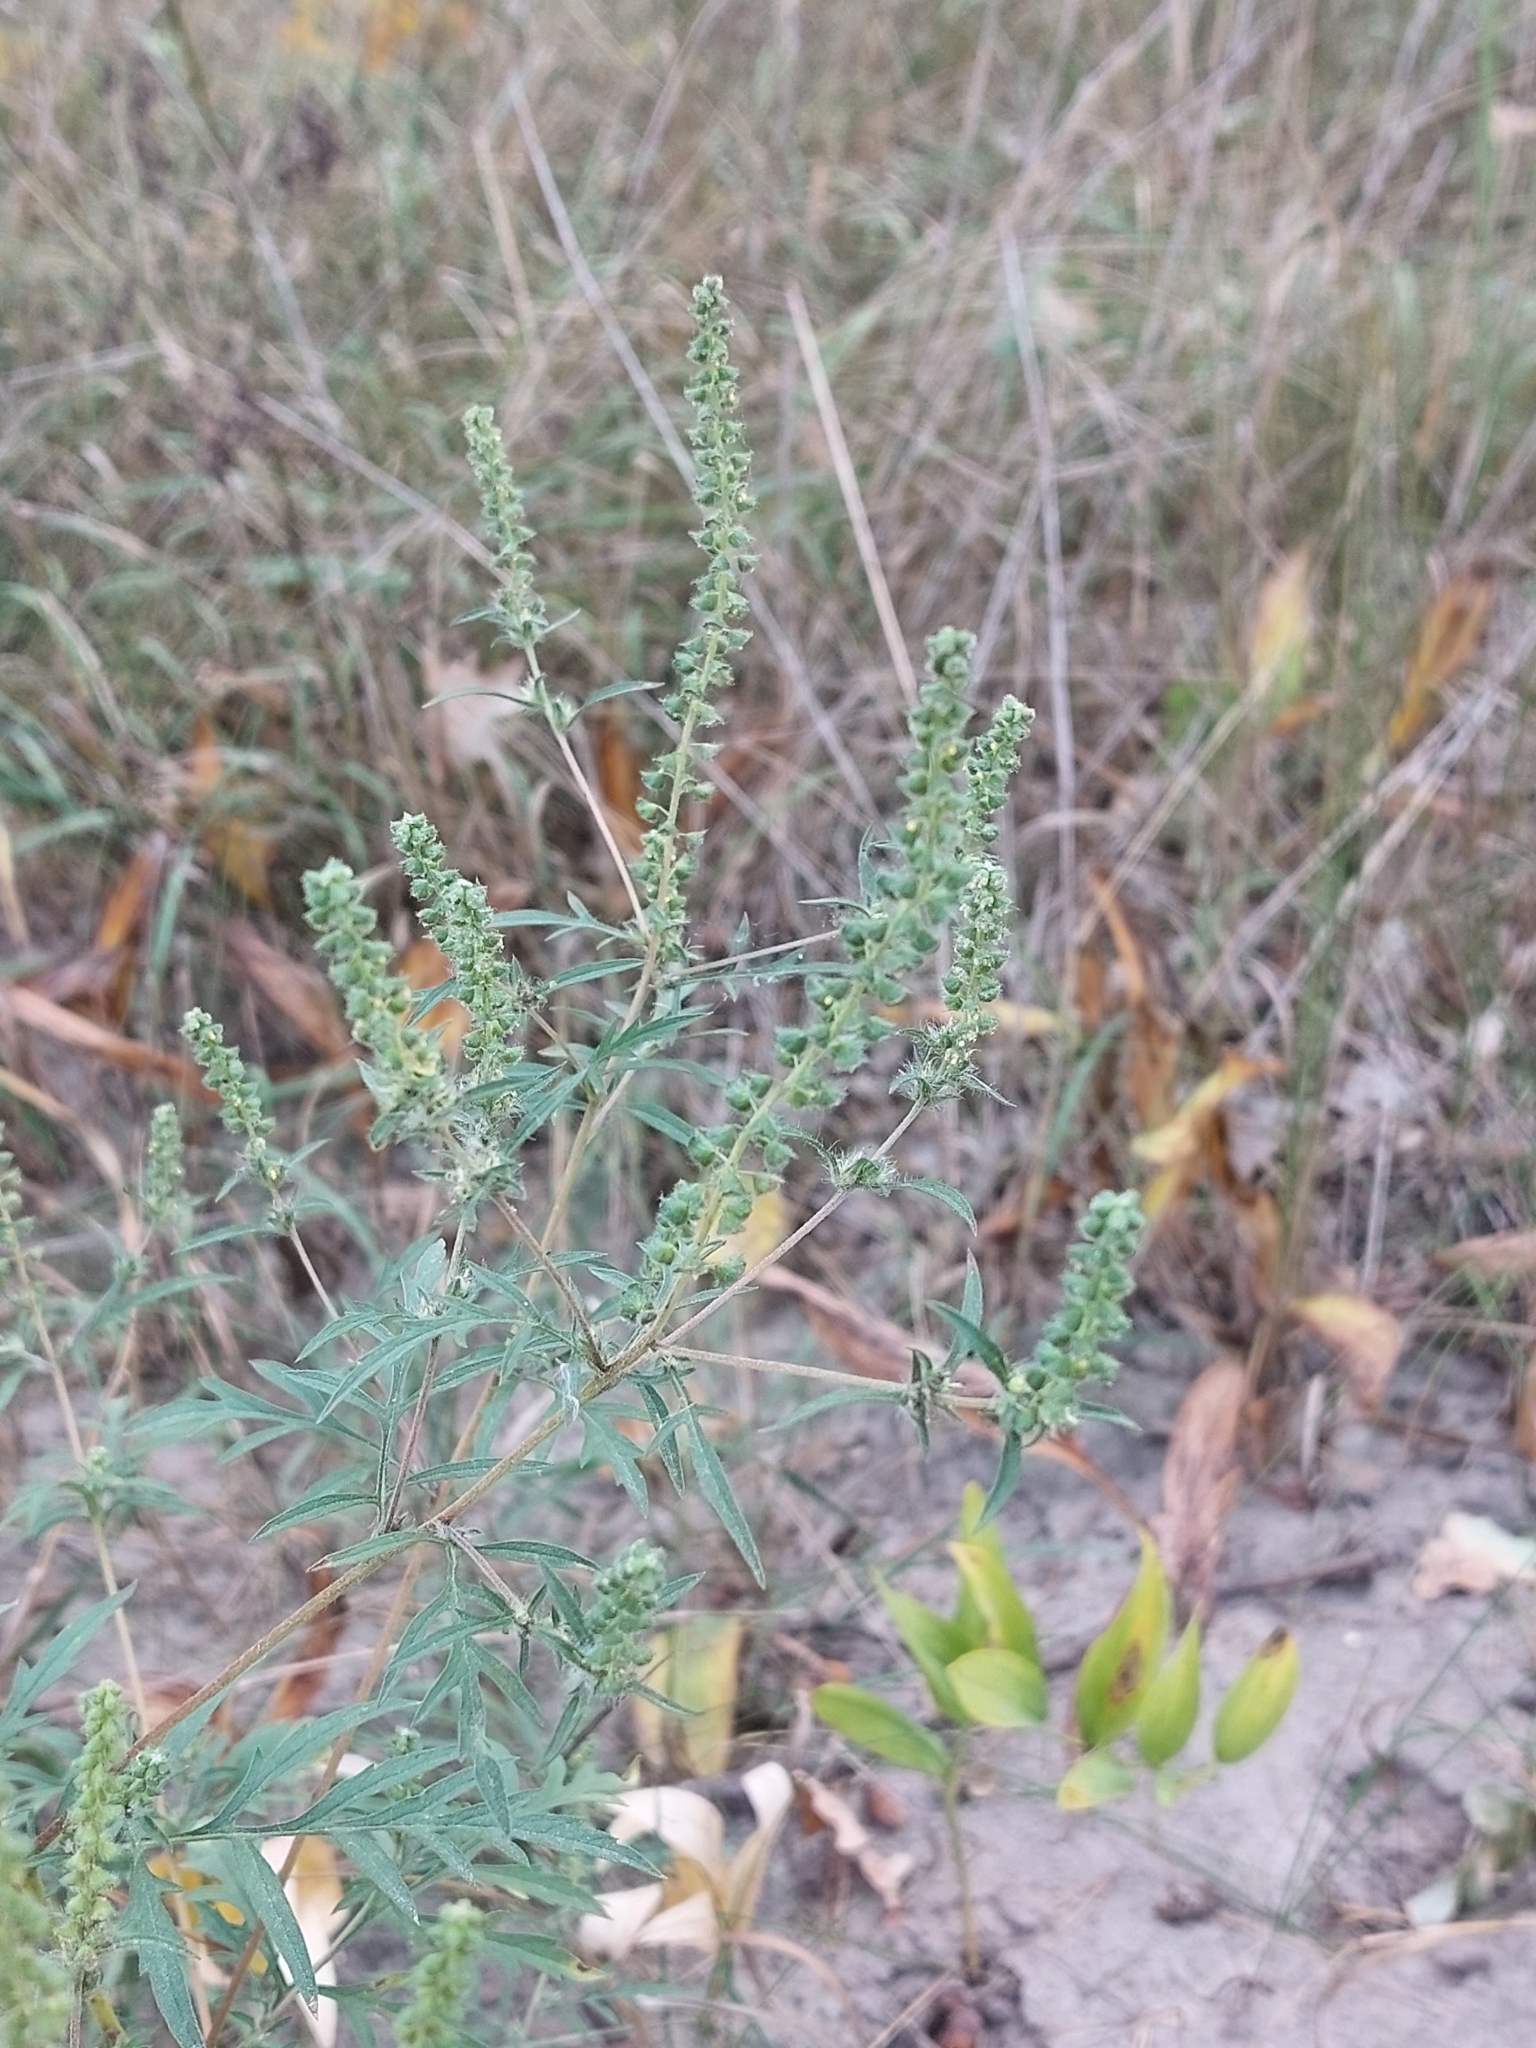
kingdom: Plantae
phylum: Tracheophyta
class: Magnoliopsida
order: Asterales
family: Asteraceae
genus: Ambrosia
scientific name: Ambrosia artemisiifolia
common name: Annual ragweed
